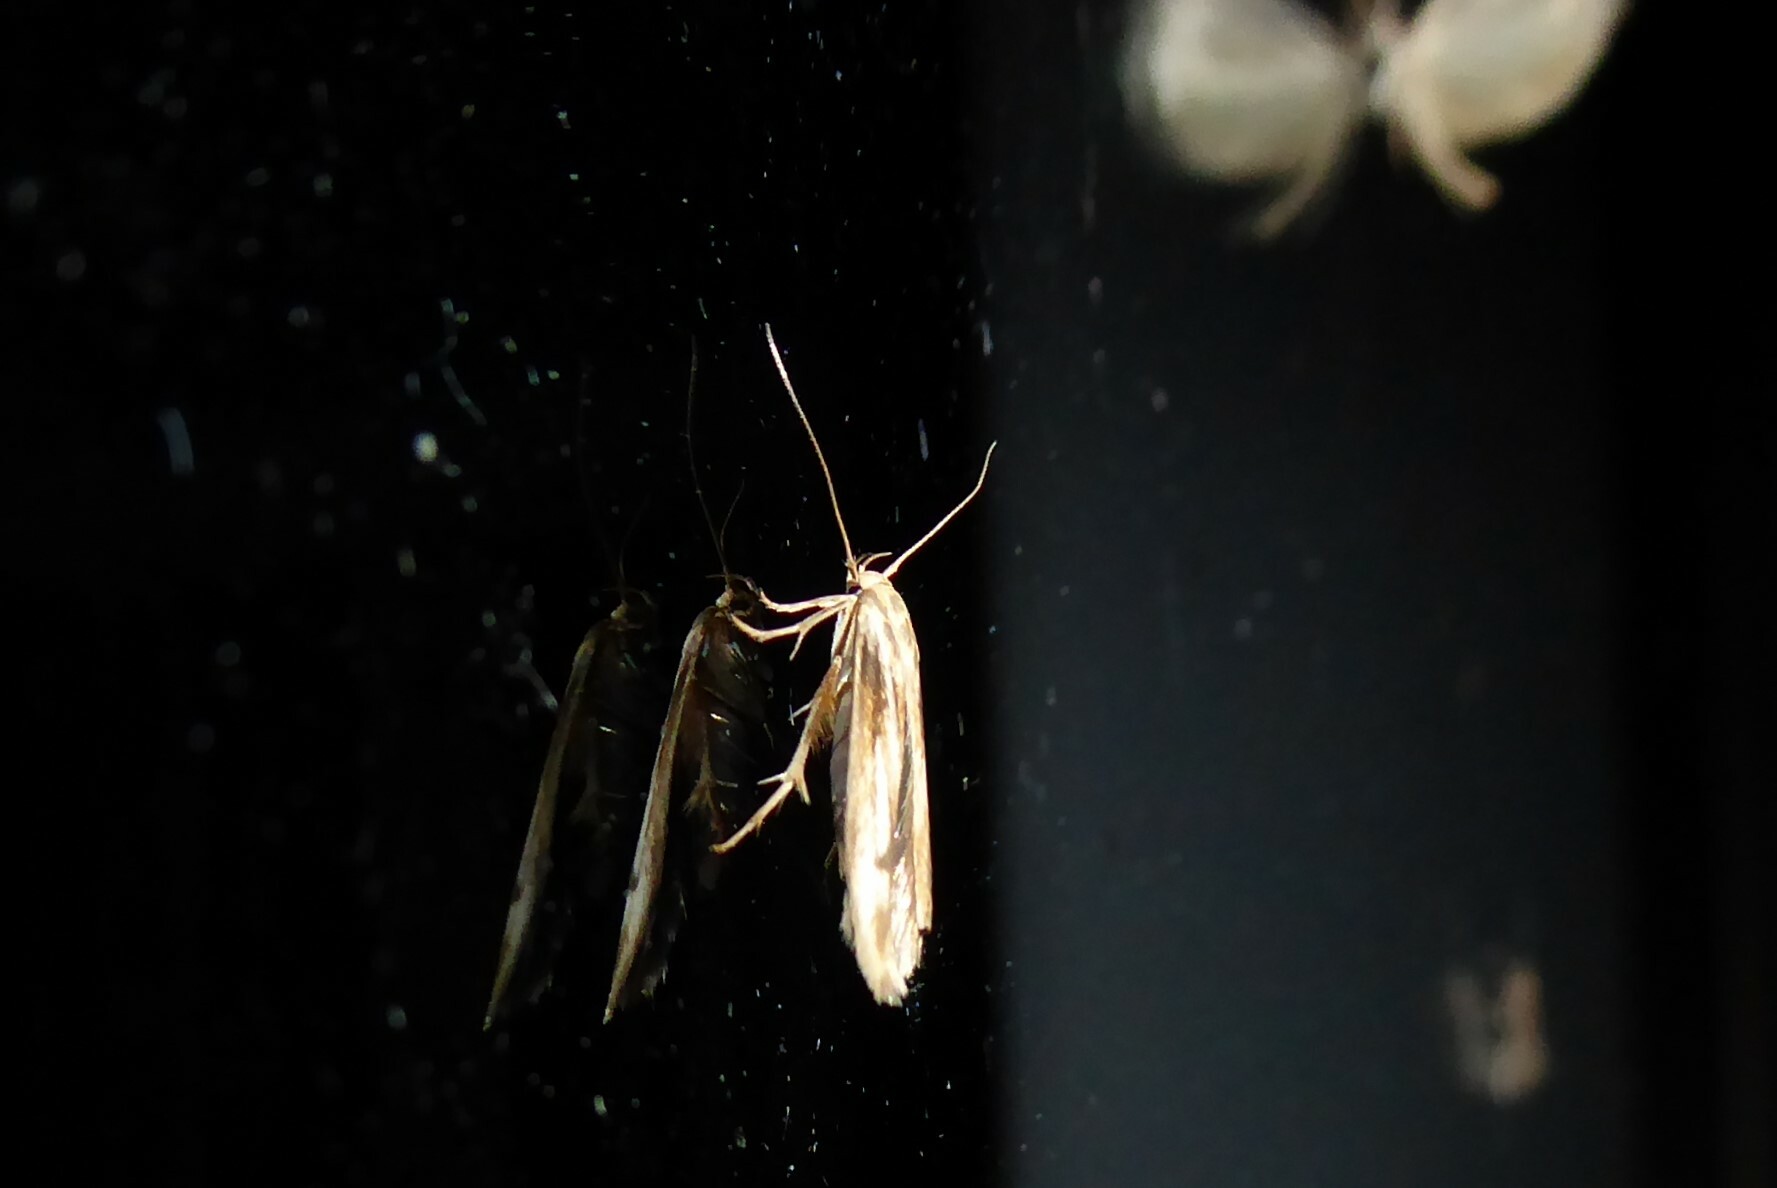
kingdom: Animalia
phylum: Arthropoda
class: Insecta
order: Lepidoptera
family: Stathmopodidae
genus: Stathmopoda
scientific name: Stathmopoda aposema
